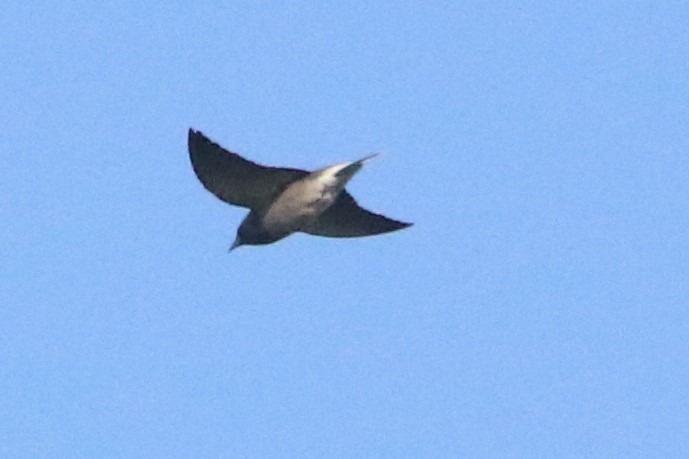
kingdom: Animalia
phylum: Chordata
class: Aves
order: Passeriformes
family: Artamidae
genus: Artamus
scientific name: Artamus fuscus
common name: Ashy woodswallow
